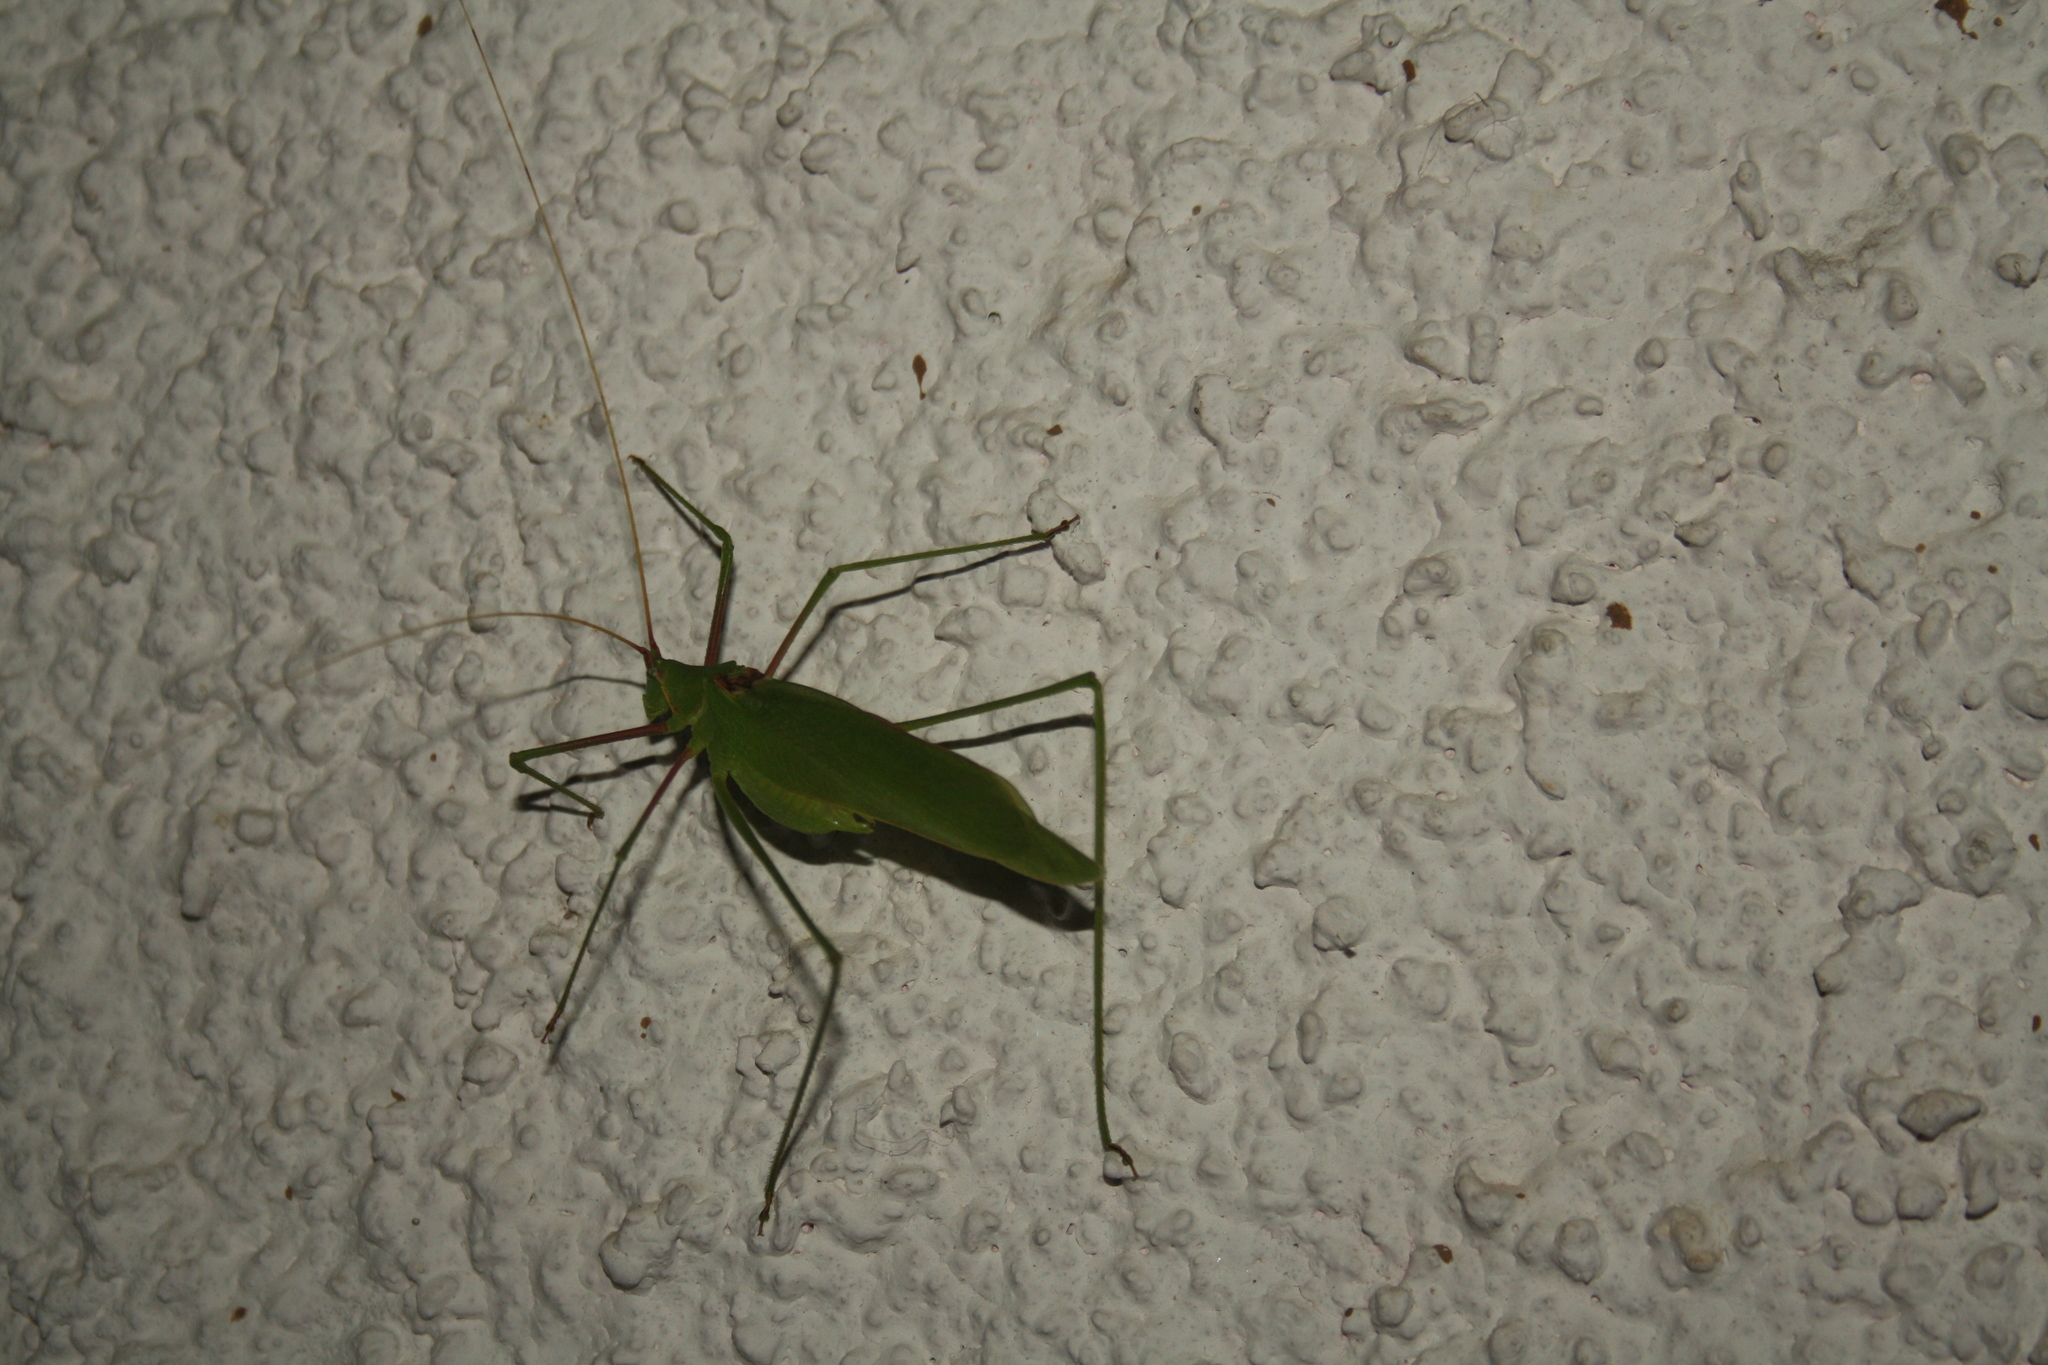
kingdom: Animalia
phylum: Arthropoda
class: Insecta
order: Orthoptera
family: Tettigoniidae
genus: Acrometopa
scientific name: Acrometopa servillea
